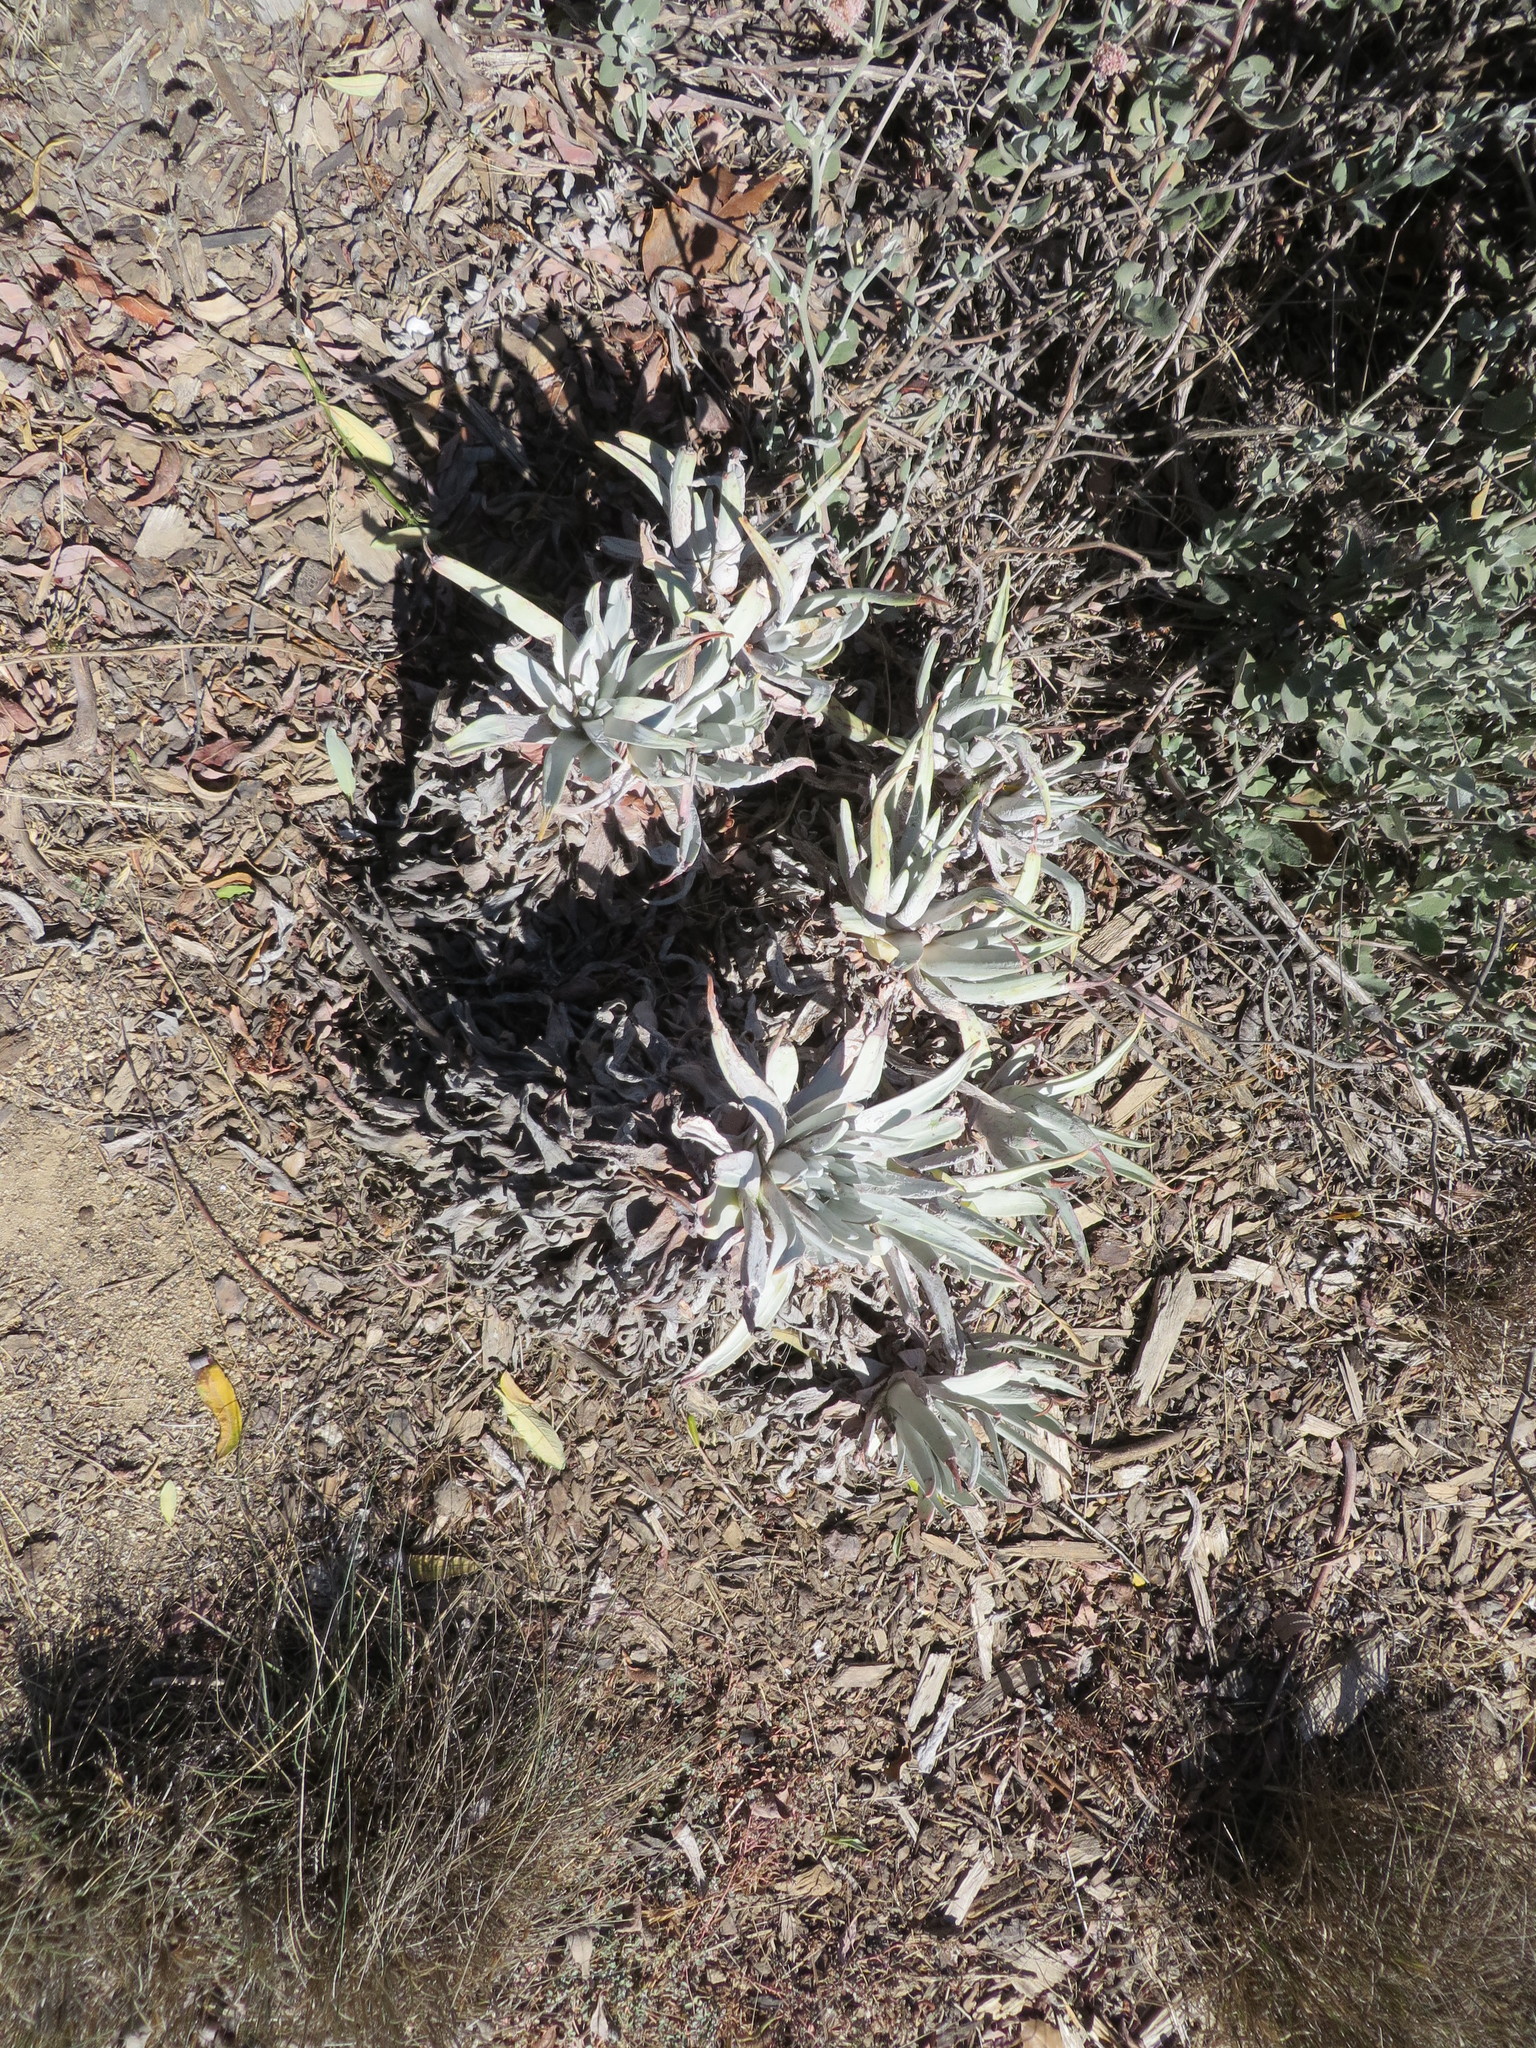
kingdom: Plantae
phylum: Tracheophyta
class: Magnoliopsida
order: Saxifragales
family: Crassulaceae
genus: Dudleya
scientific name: Dudleya virens
